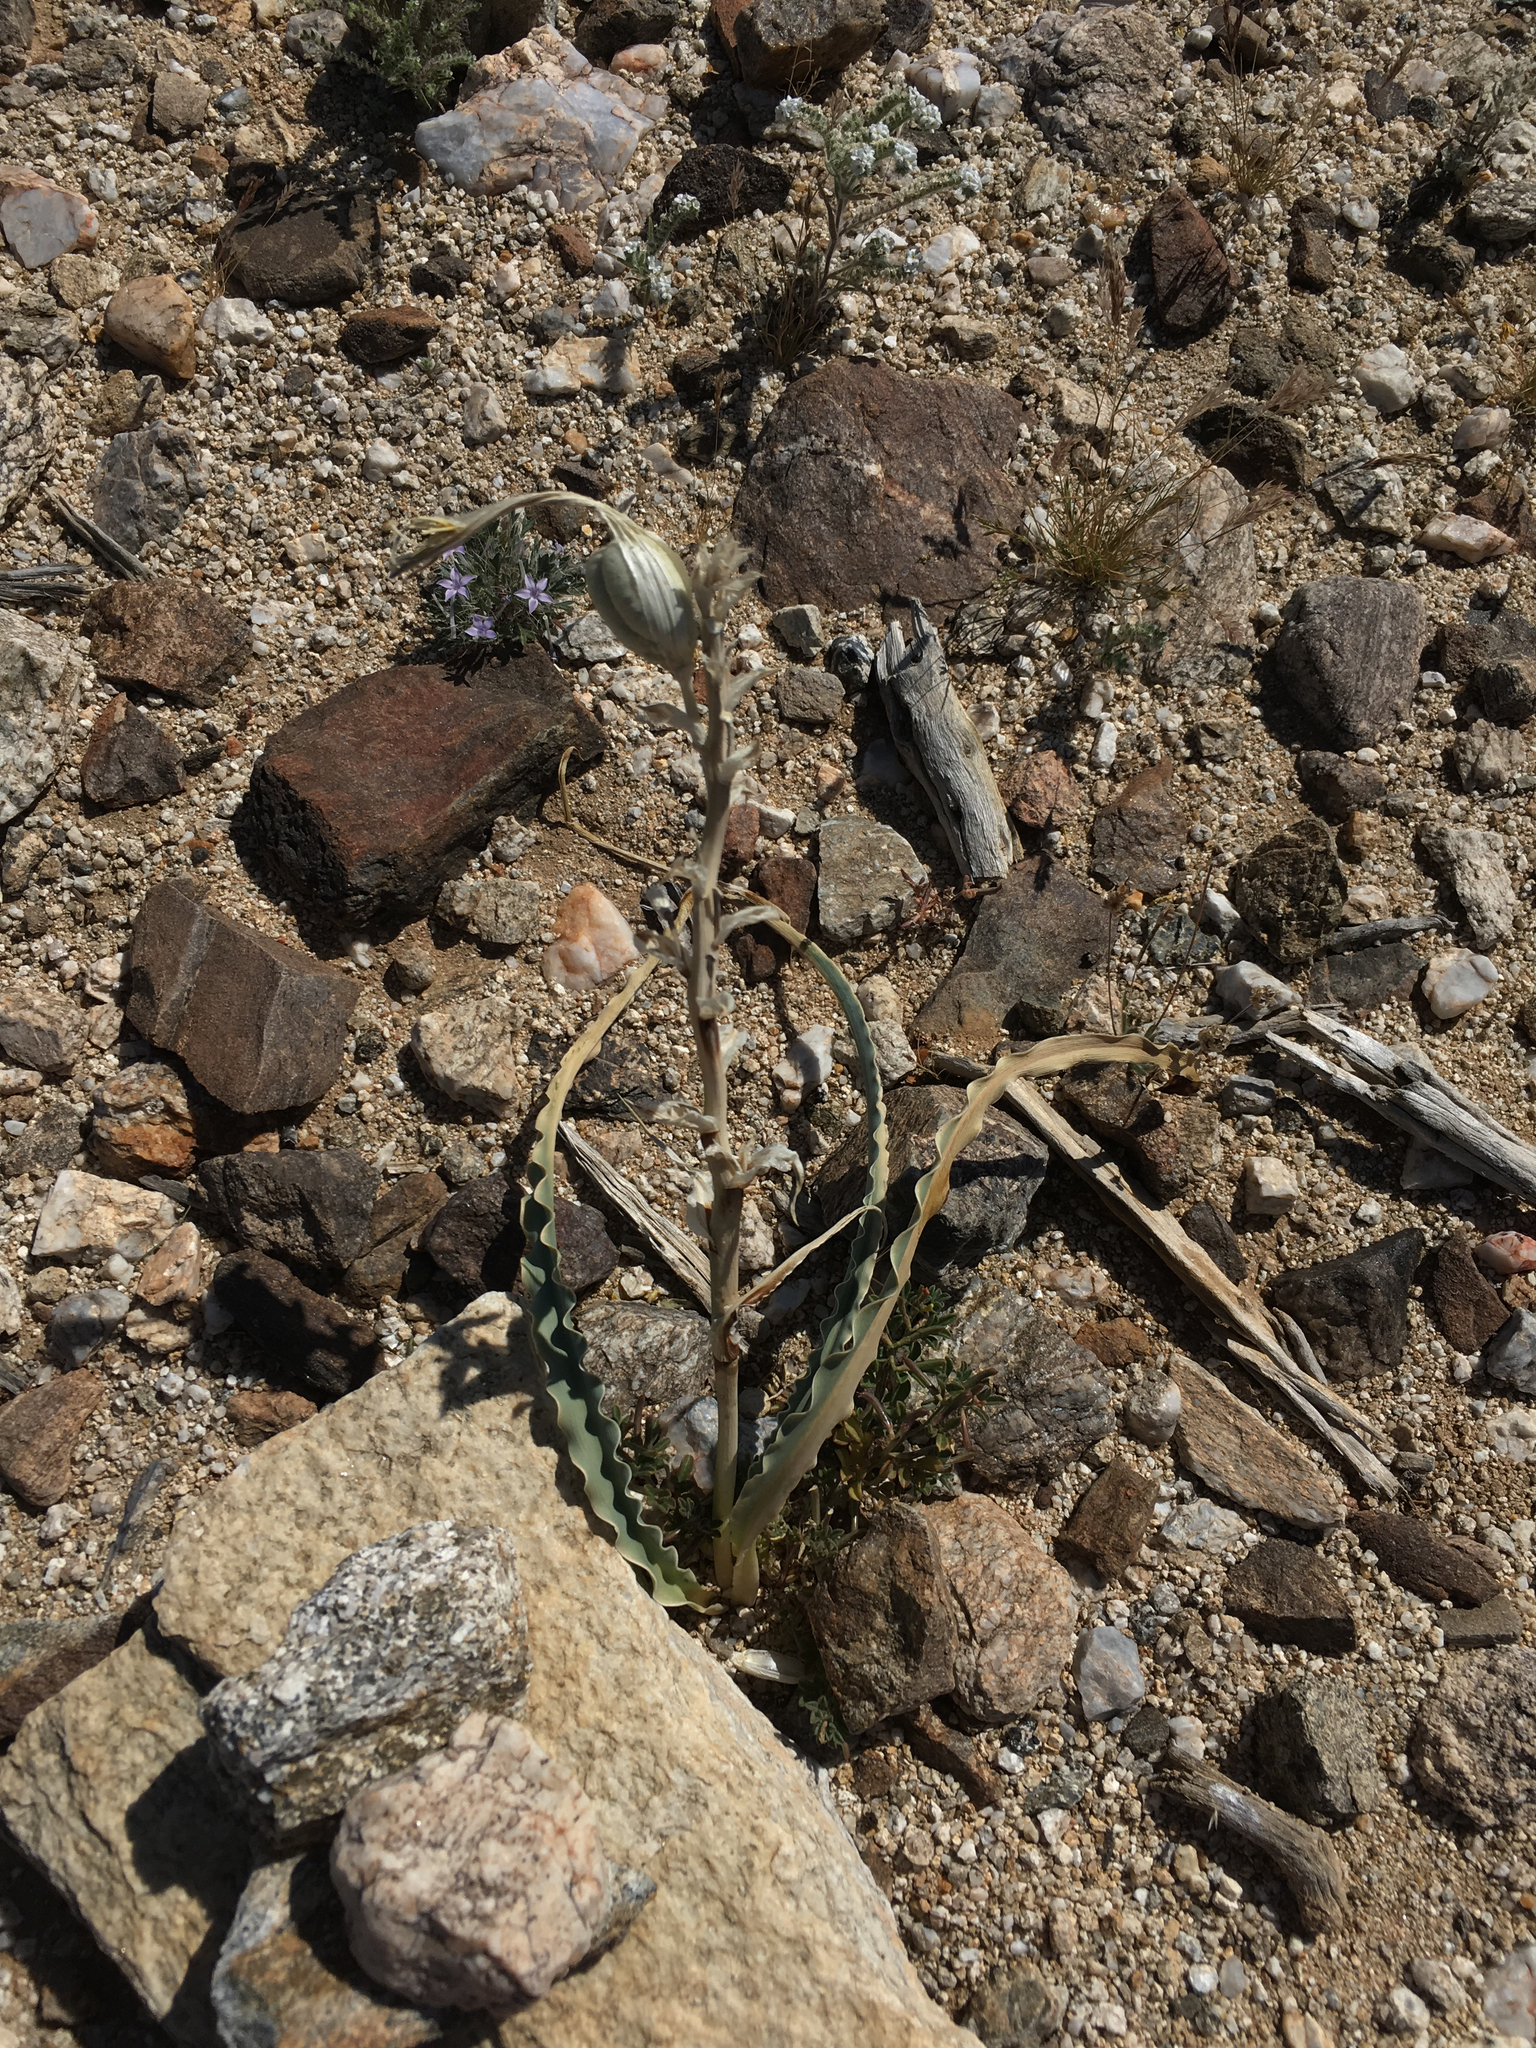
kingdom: Plantae
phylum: Tracheophyta
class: Liliopsida
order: Asparagales
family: Asparagaceae
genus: Hesperocallis
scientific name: Hesperocallis undulata
